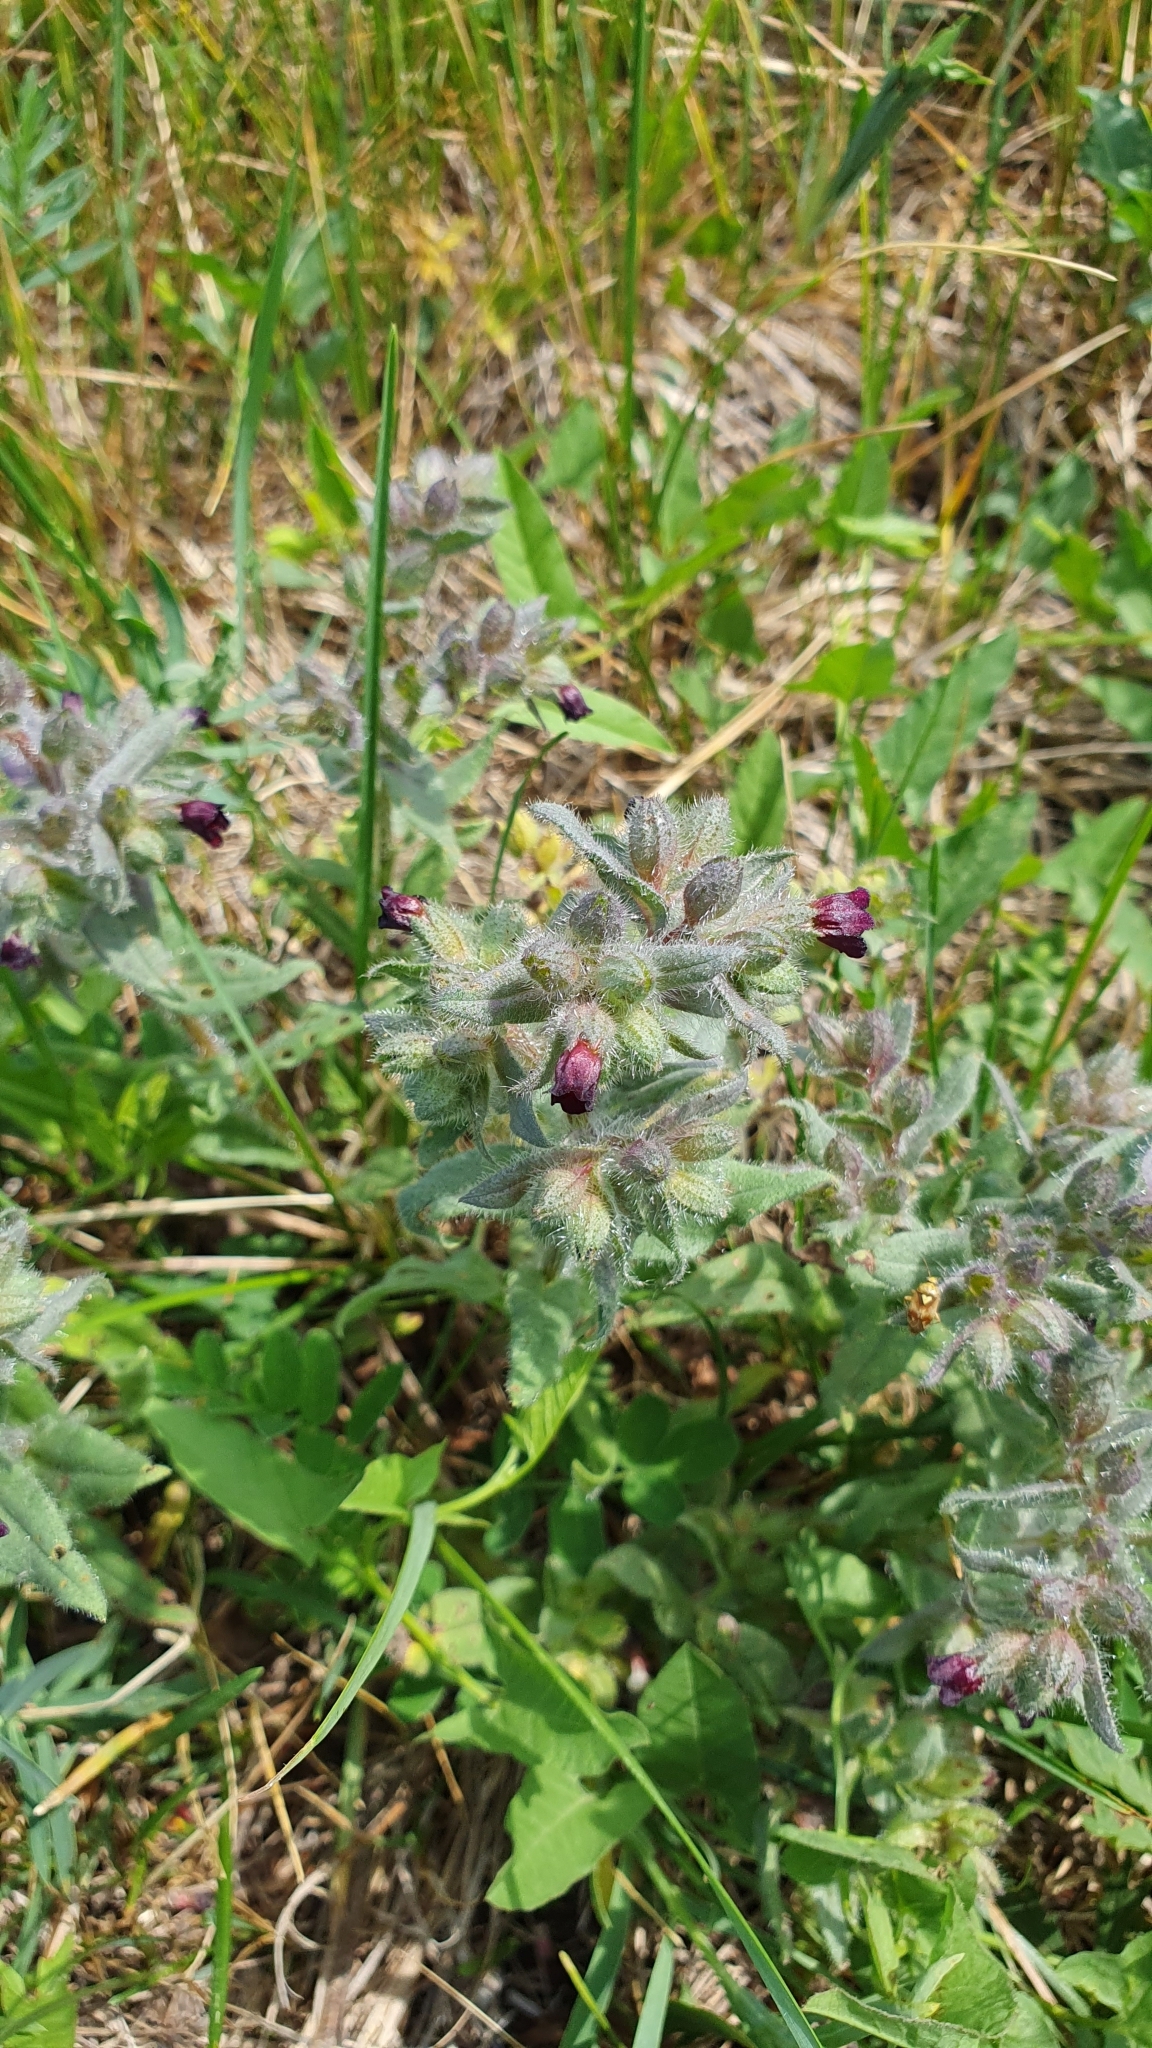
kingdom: Plantae
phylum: Tracheophyta
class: Magnoliopsida
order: Boraginales
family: Boraginaceae
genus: Nonea
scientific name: Nonea pulla
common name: Brown nonea
